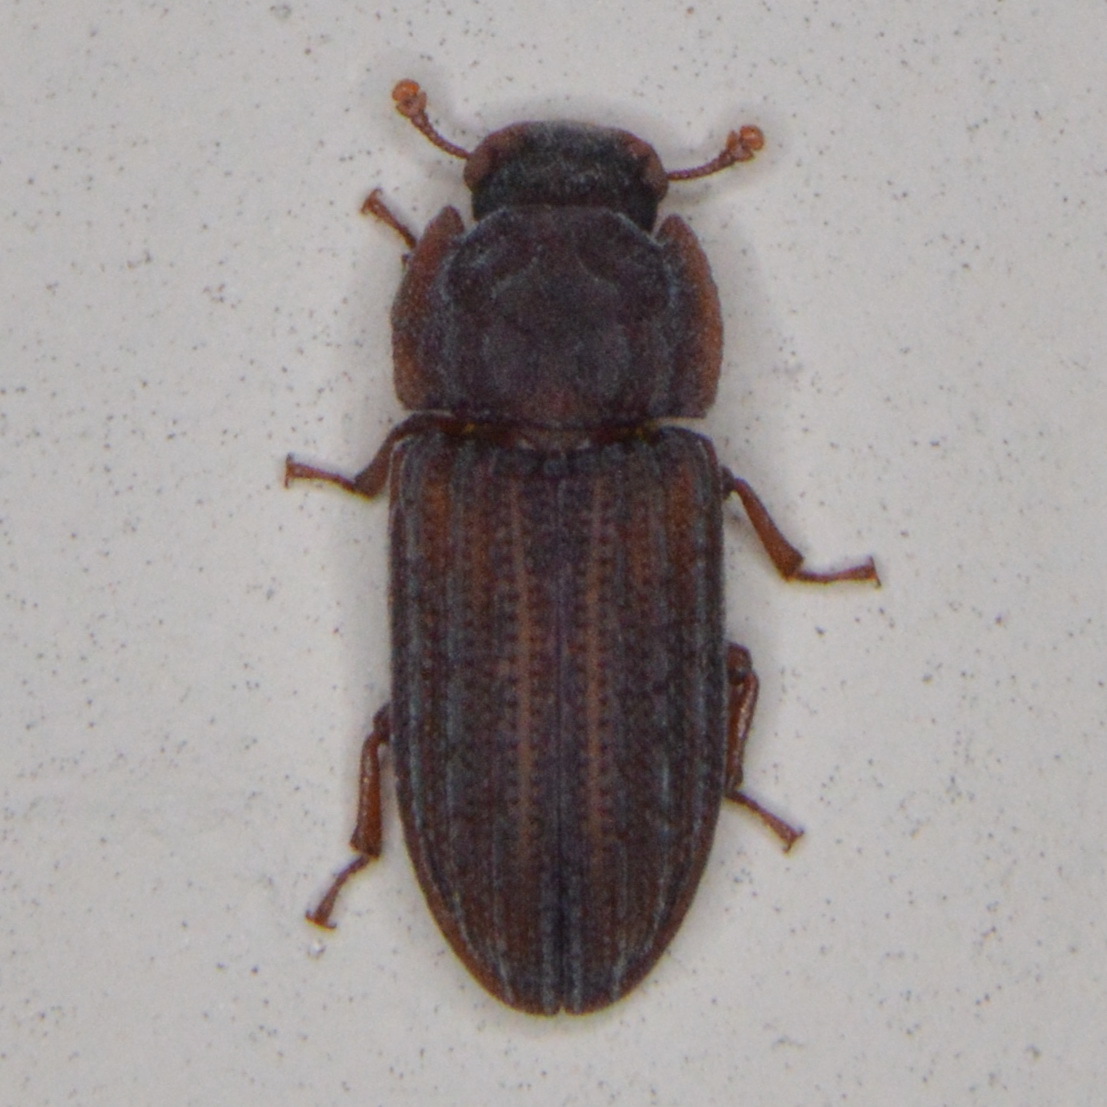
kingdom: Animalia
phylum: Arthropoda
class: Insecta
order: Coleoptera
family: Zopheridae
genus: Phloeonemus
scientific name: Phloeonemus interruptus
